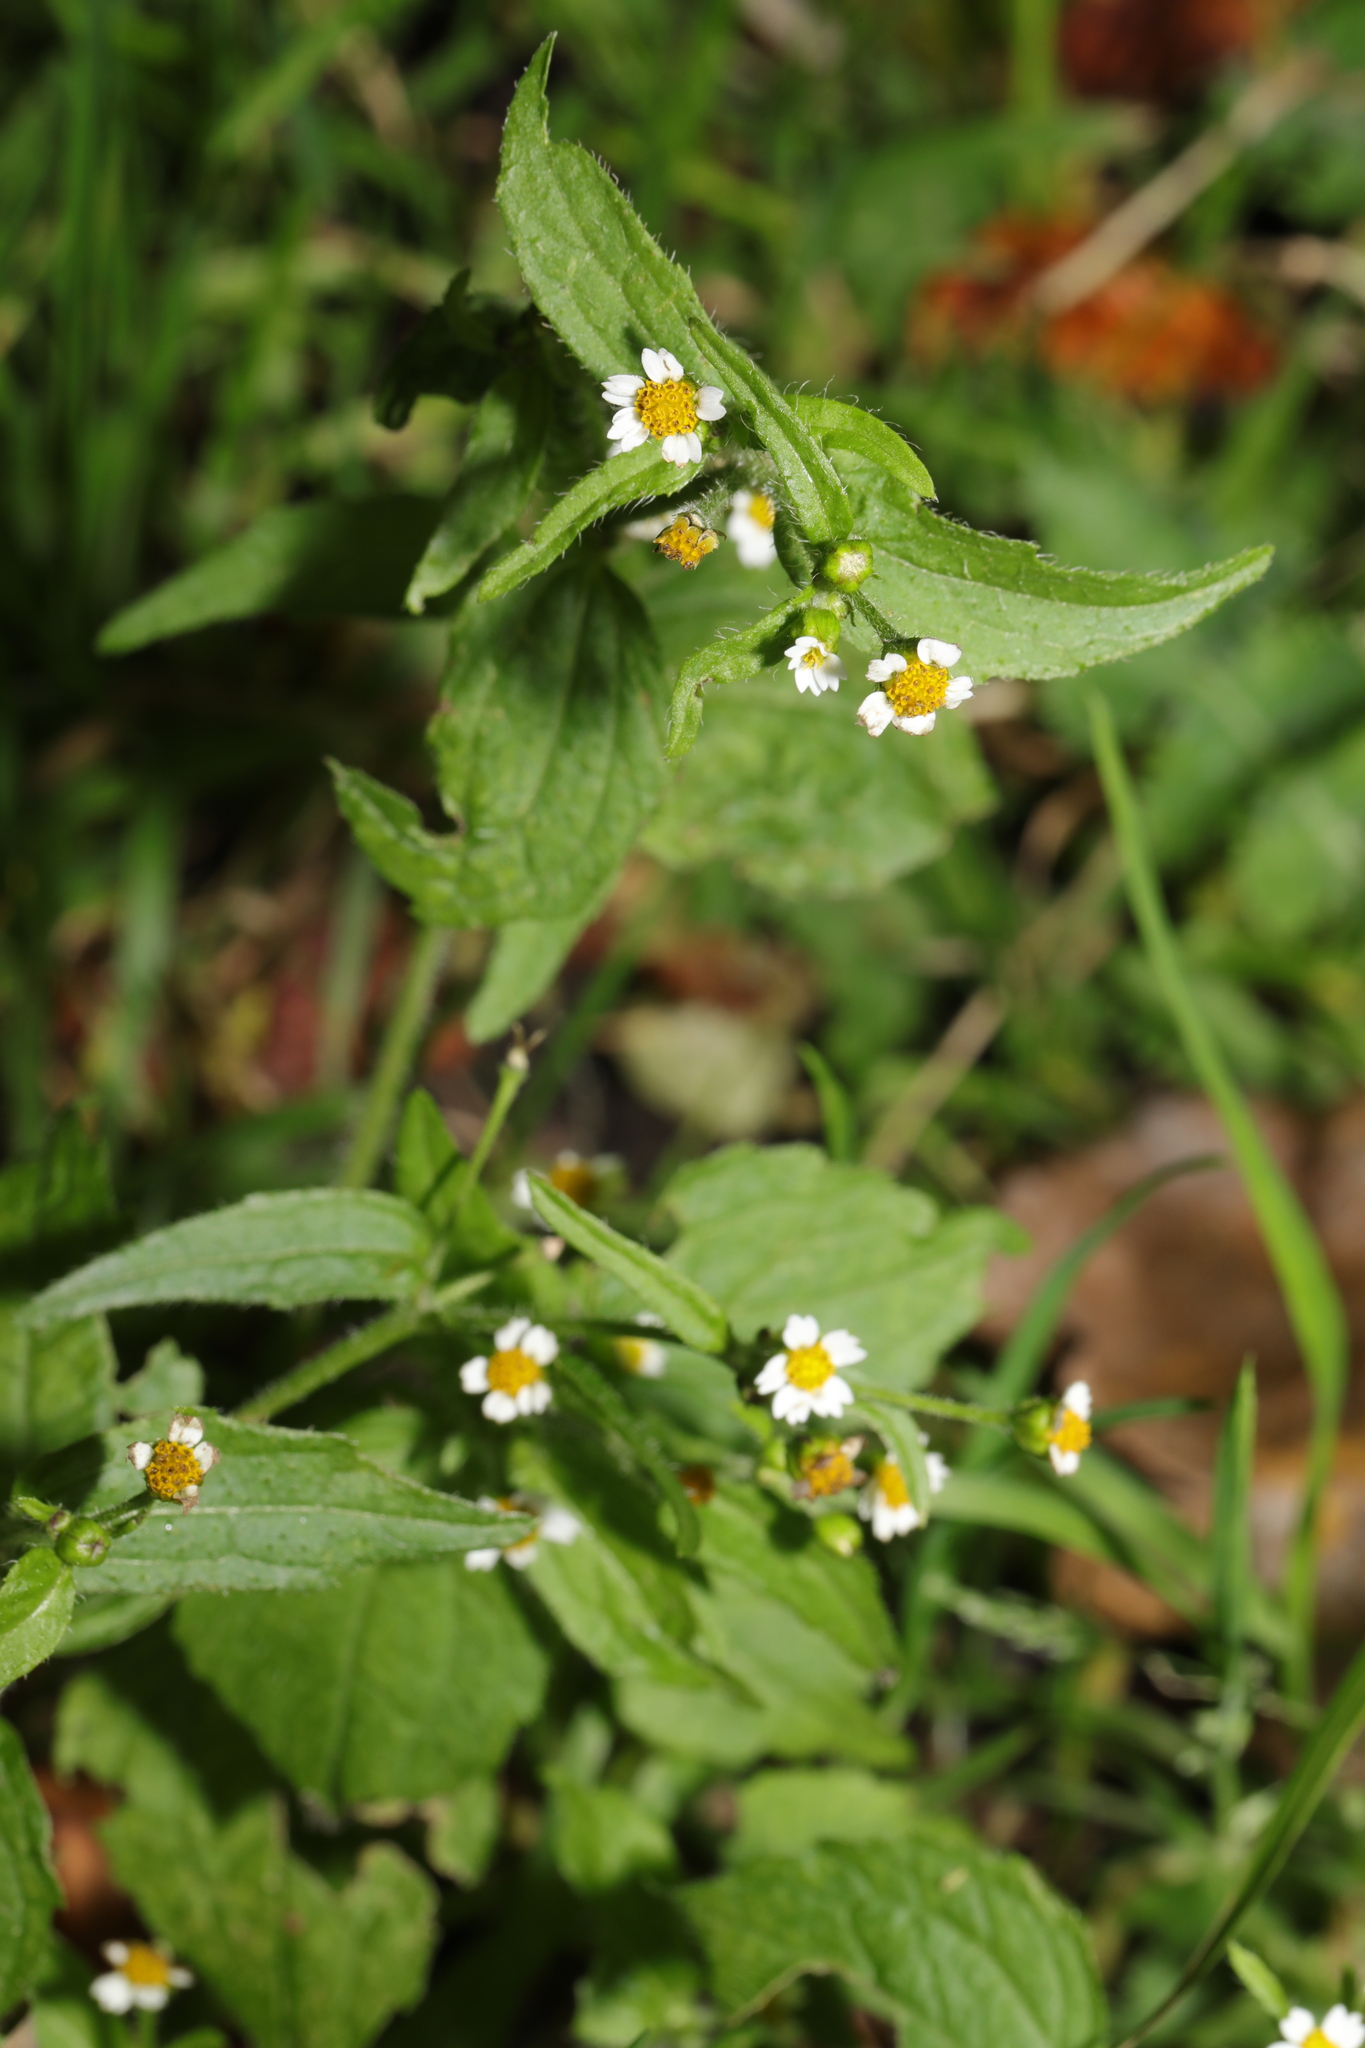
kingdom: Plantae
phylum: Tracheophyta
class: Magnoliopsida
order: Asterales
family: Asteraceae
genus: Galinsoga
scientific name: Galinsoga quadriradiata
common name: Shaggy soldier
